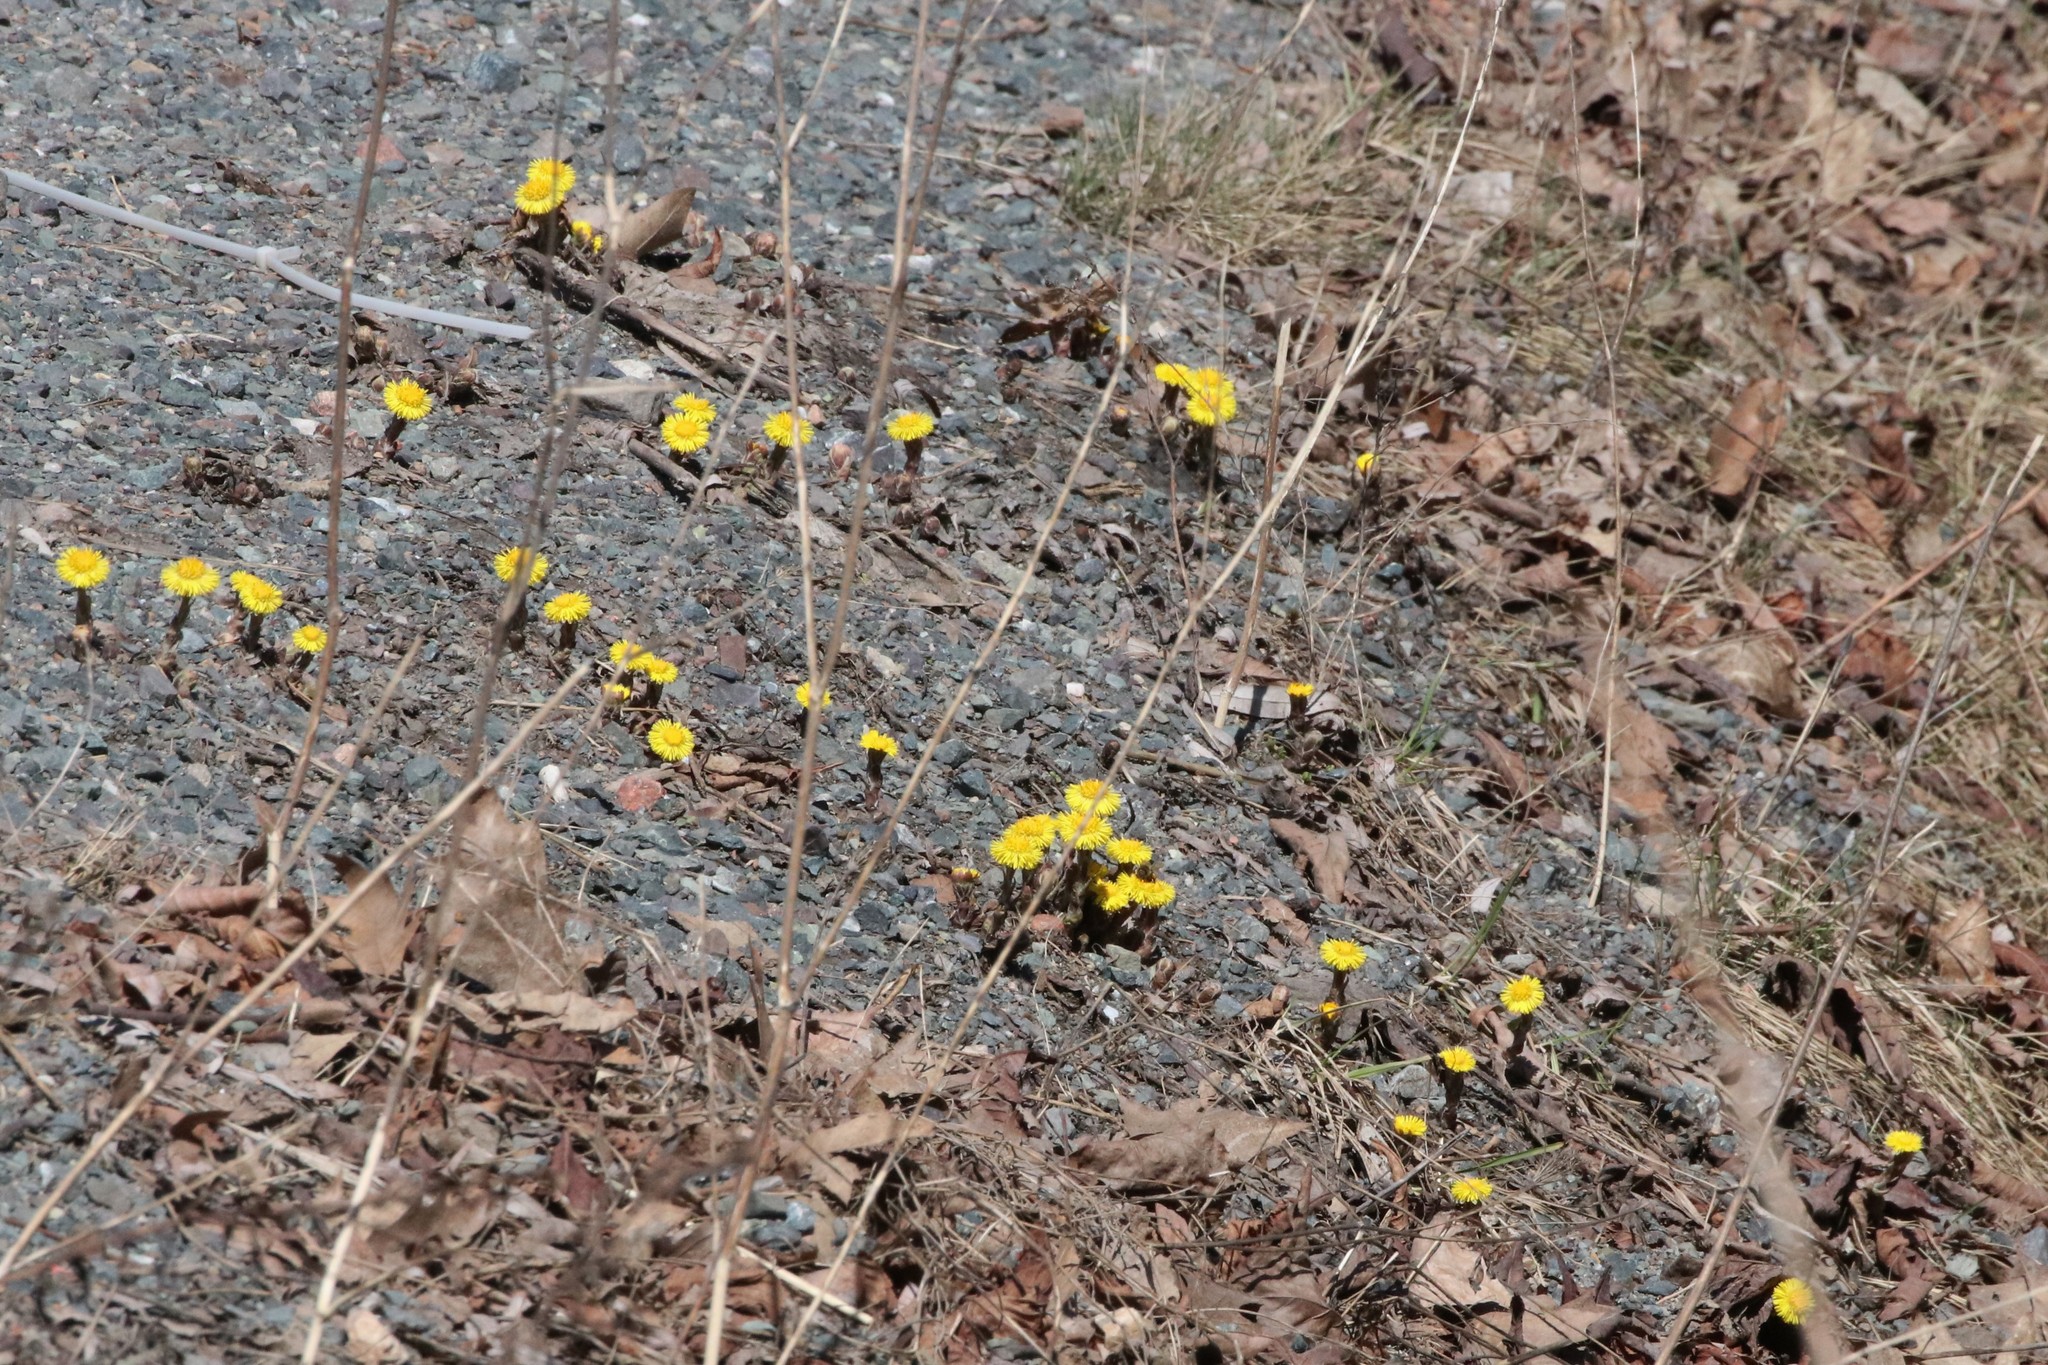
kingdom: Plantae
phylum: Tracheophyta
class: Magnoliopsida
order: Asterales
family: Asteraceae
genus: Tussilago
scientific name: Tussilago farfara
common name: Coltsfoot
